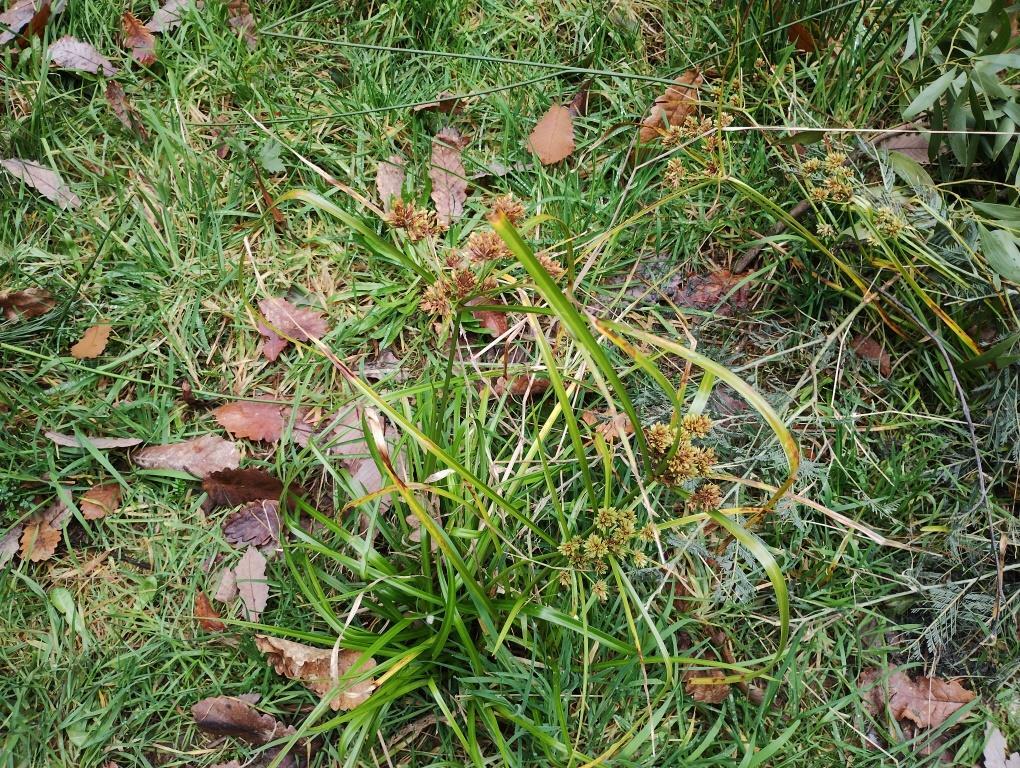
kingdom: Plantae
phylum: Tracheophyta
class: Liliopsida
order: Poales
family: Cyperaceae
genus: Cyperus
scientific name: Cyperus eragrostis
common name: Tall flatsedge
